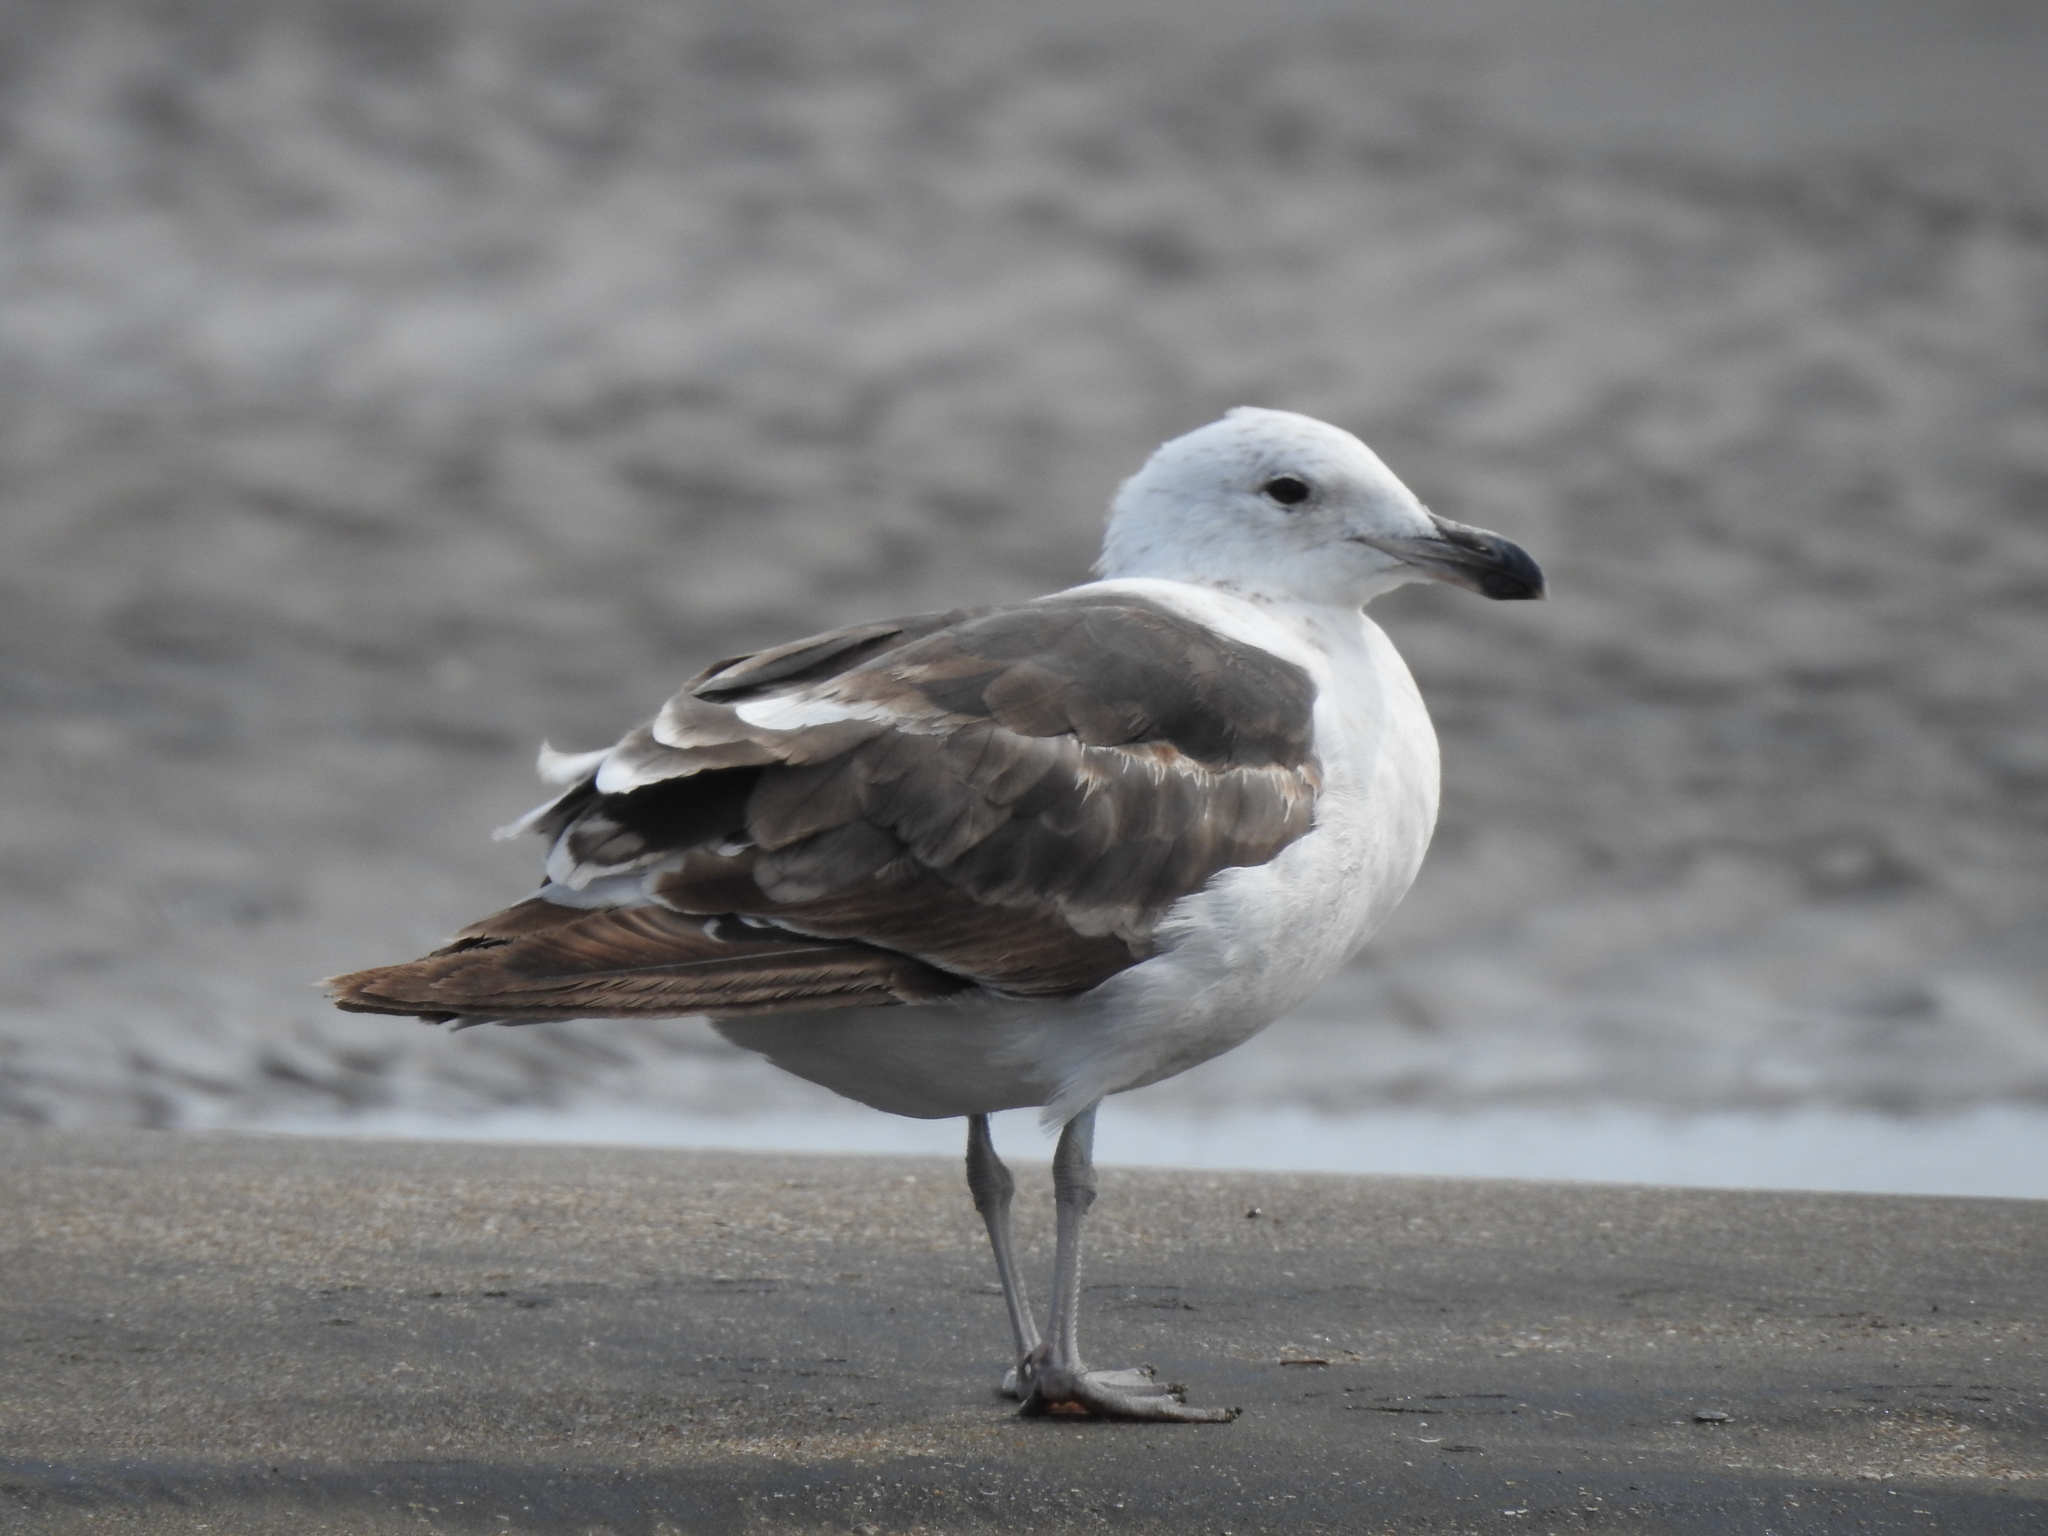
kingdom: Animalia
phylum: Chordata
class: Aves
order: Charadriiformes
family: Laridae
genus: Larus
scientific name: Larus dominicanus
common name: Kelp gull
